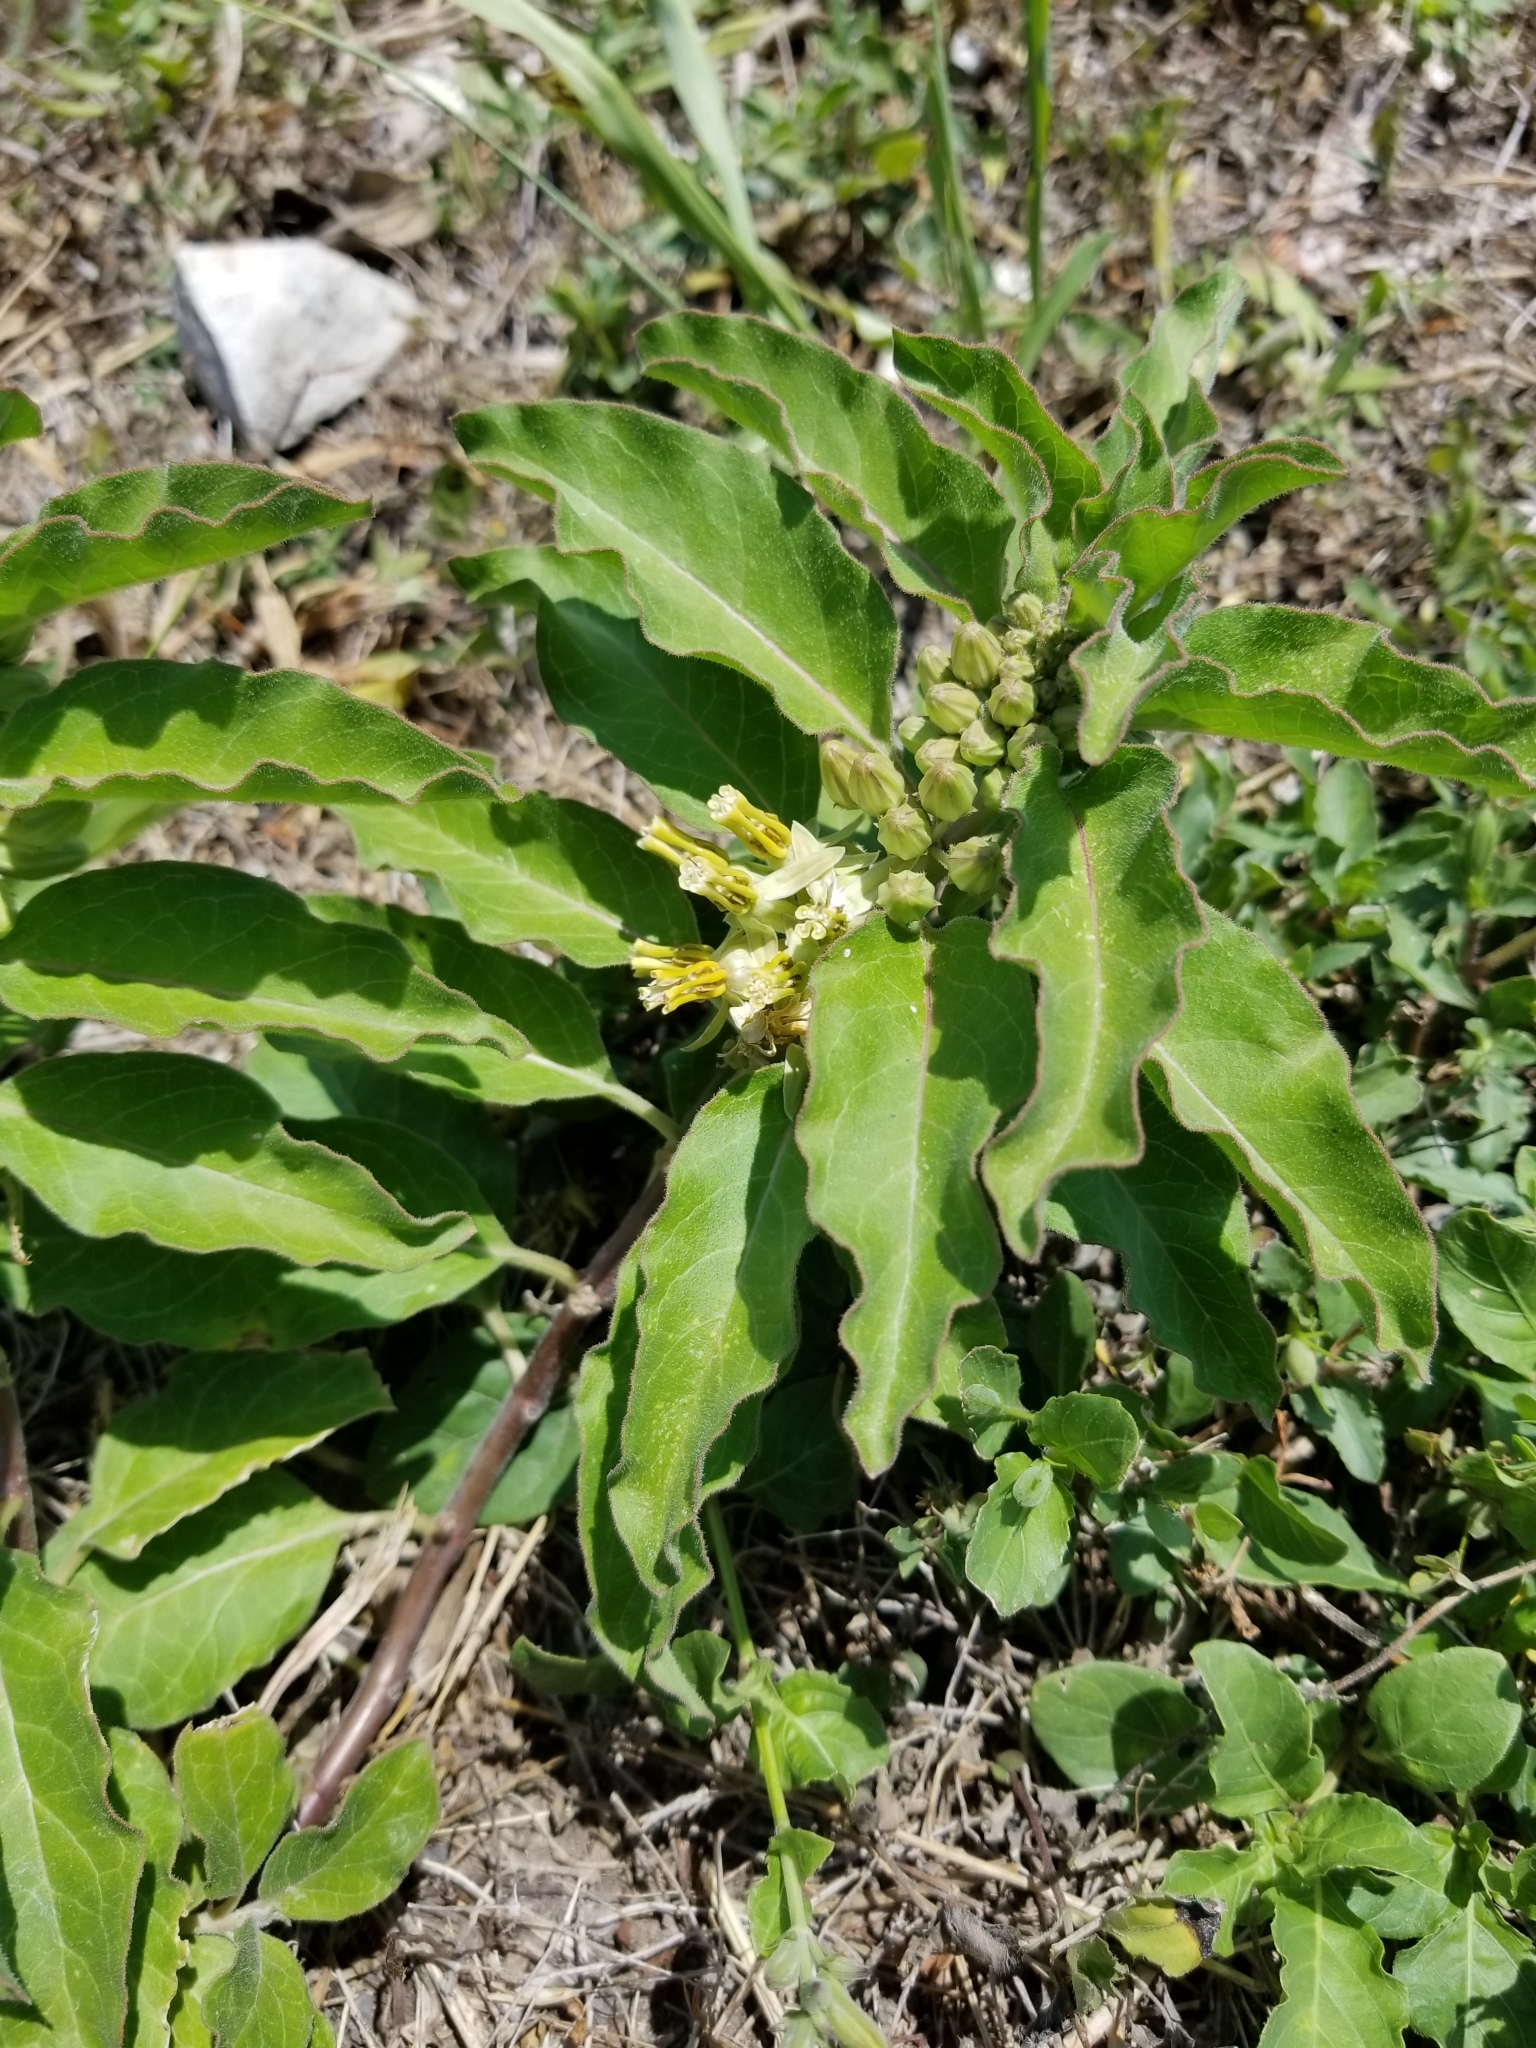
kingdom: Plantae
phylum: Tracheophyta
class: Magnoliopsida
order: Gentianales
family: Apocynaceae
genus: Asclepias
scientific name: Asclepias oenotheroides
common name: Zizotes milkweed
